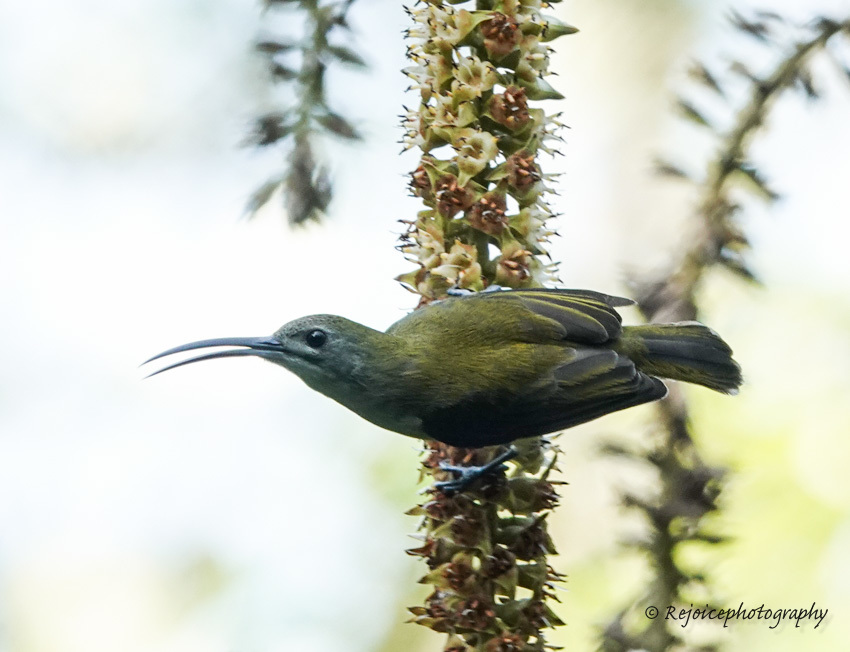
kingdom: Animalia
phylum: Chordata
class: Aves
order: Passeriformes
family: Nectariniidae
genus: Arachnothera
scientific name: Arachnothera longirostra
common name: Little spiderhunter
